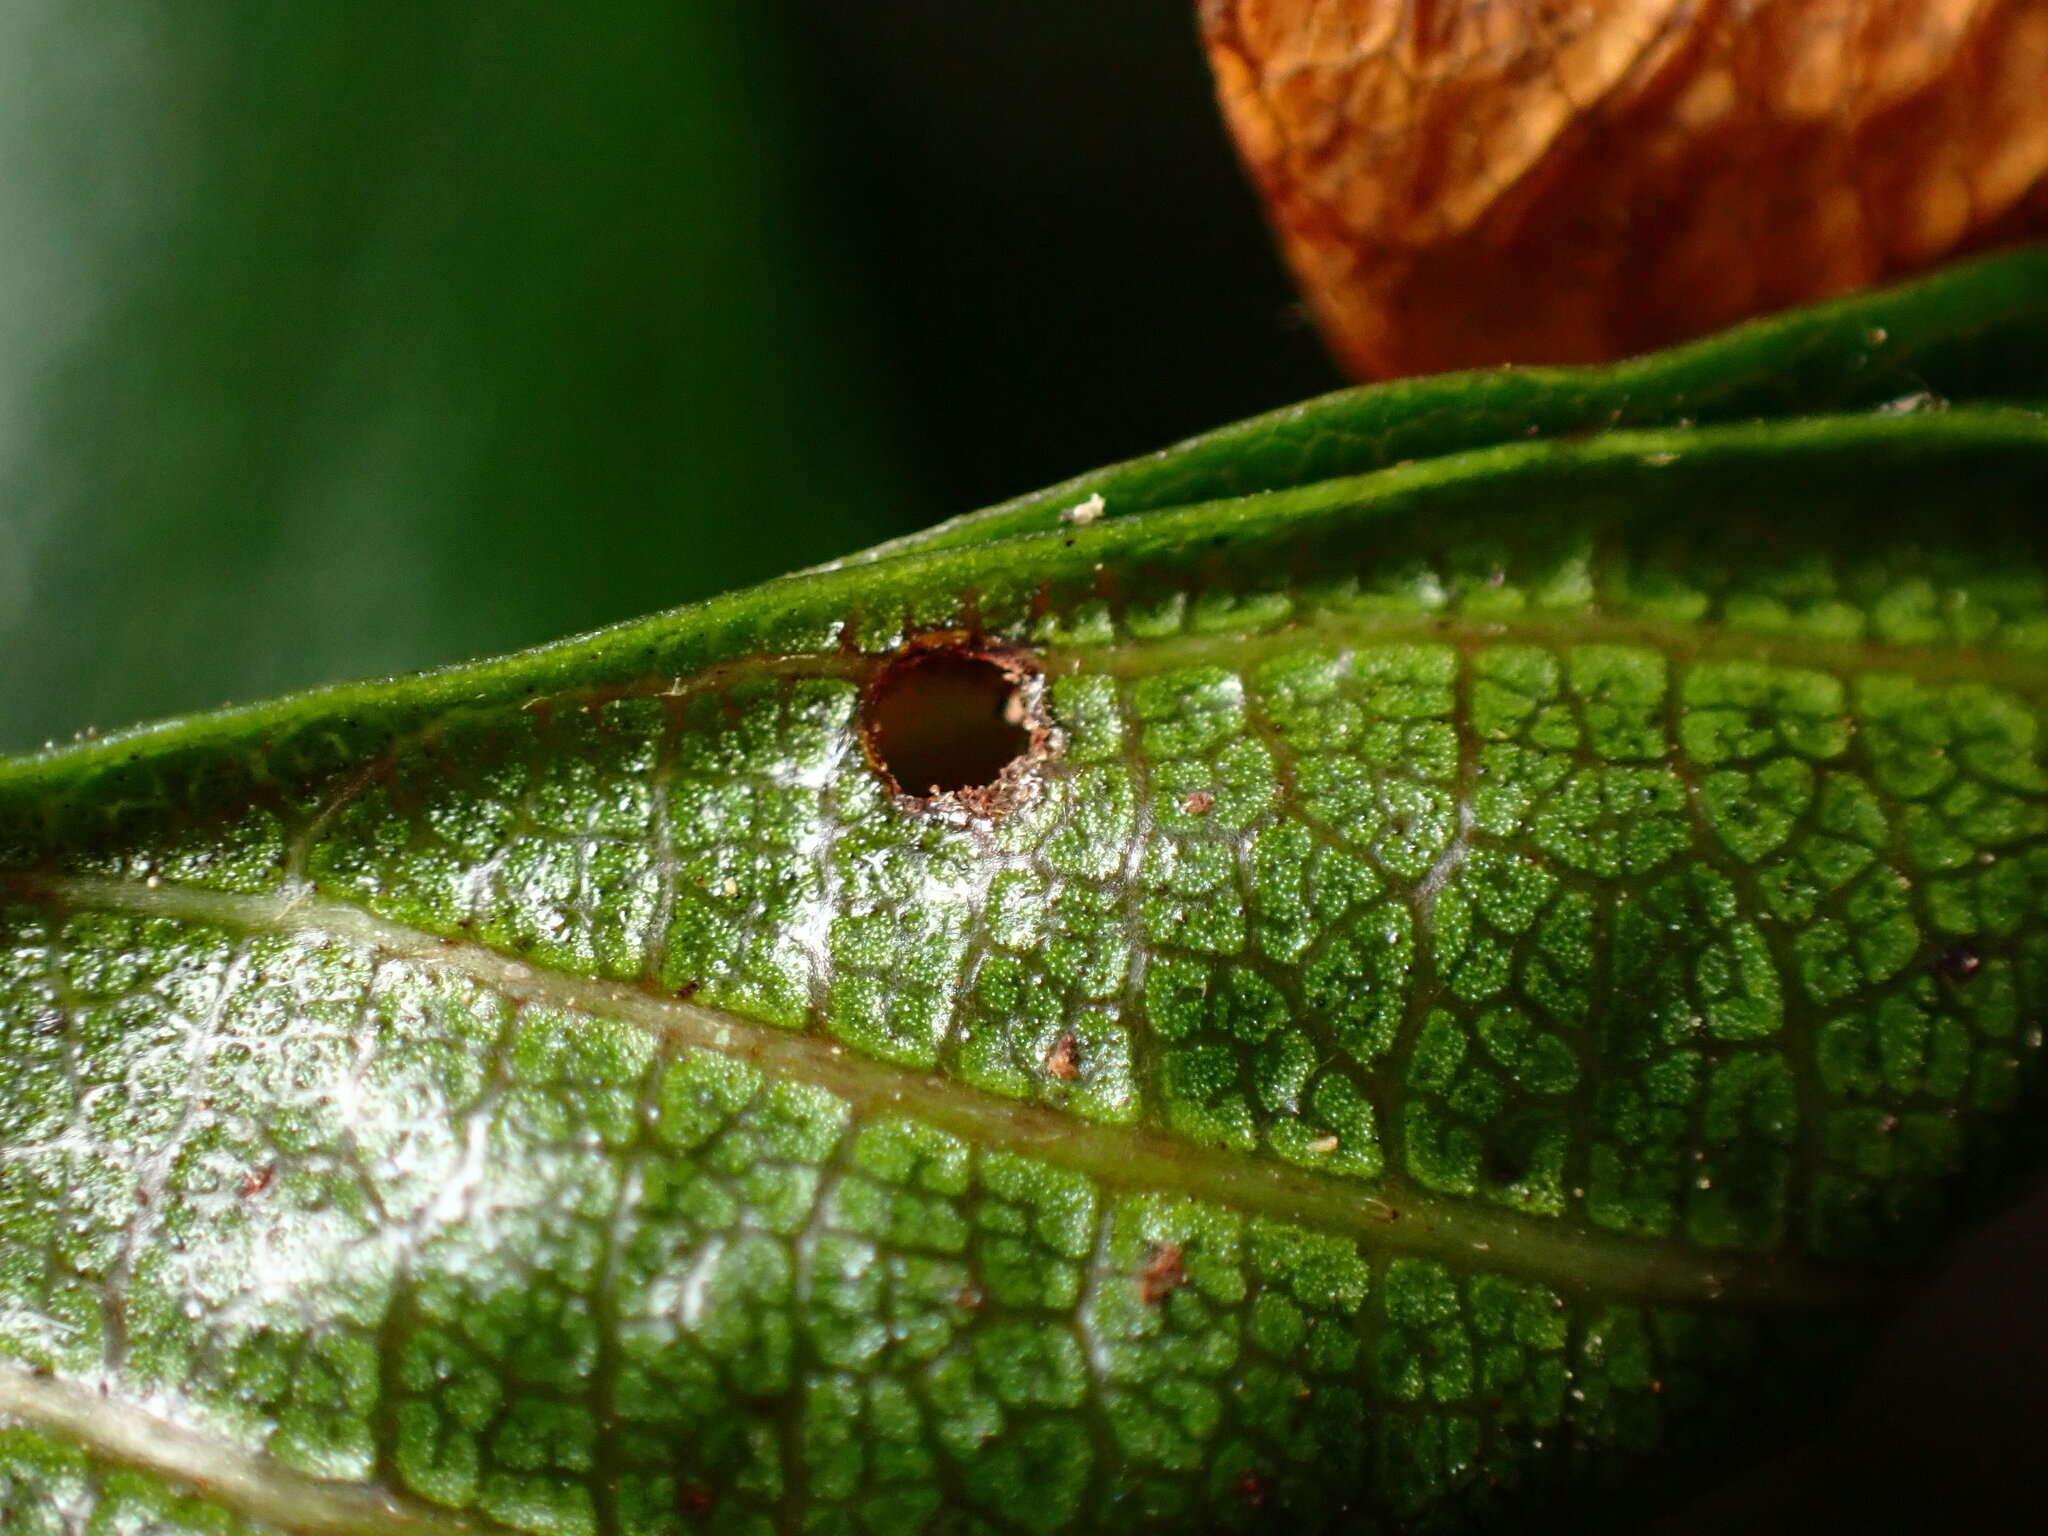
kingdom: Animalia
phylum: Arthropoda
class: Insecta
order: Lepidoptera
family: Cosmopterigidae
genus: Sorhagenia
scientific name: Sorhagenia nimbosus
